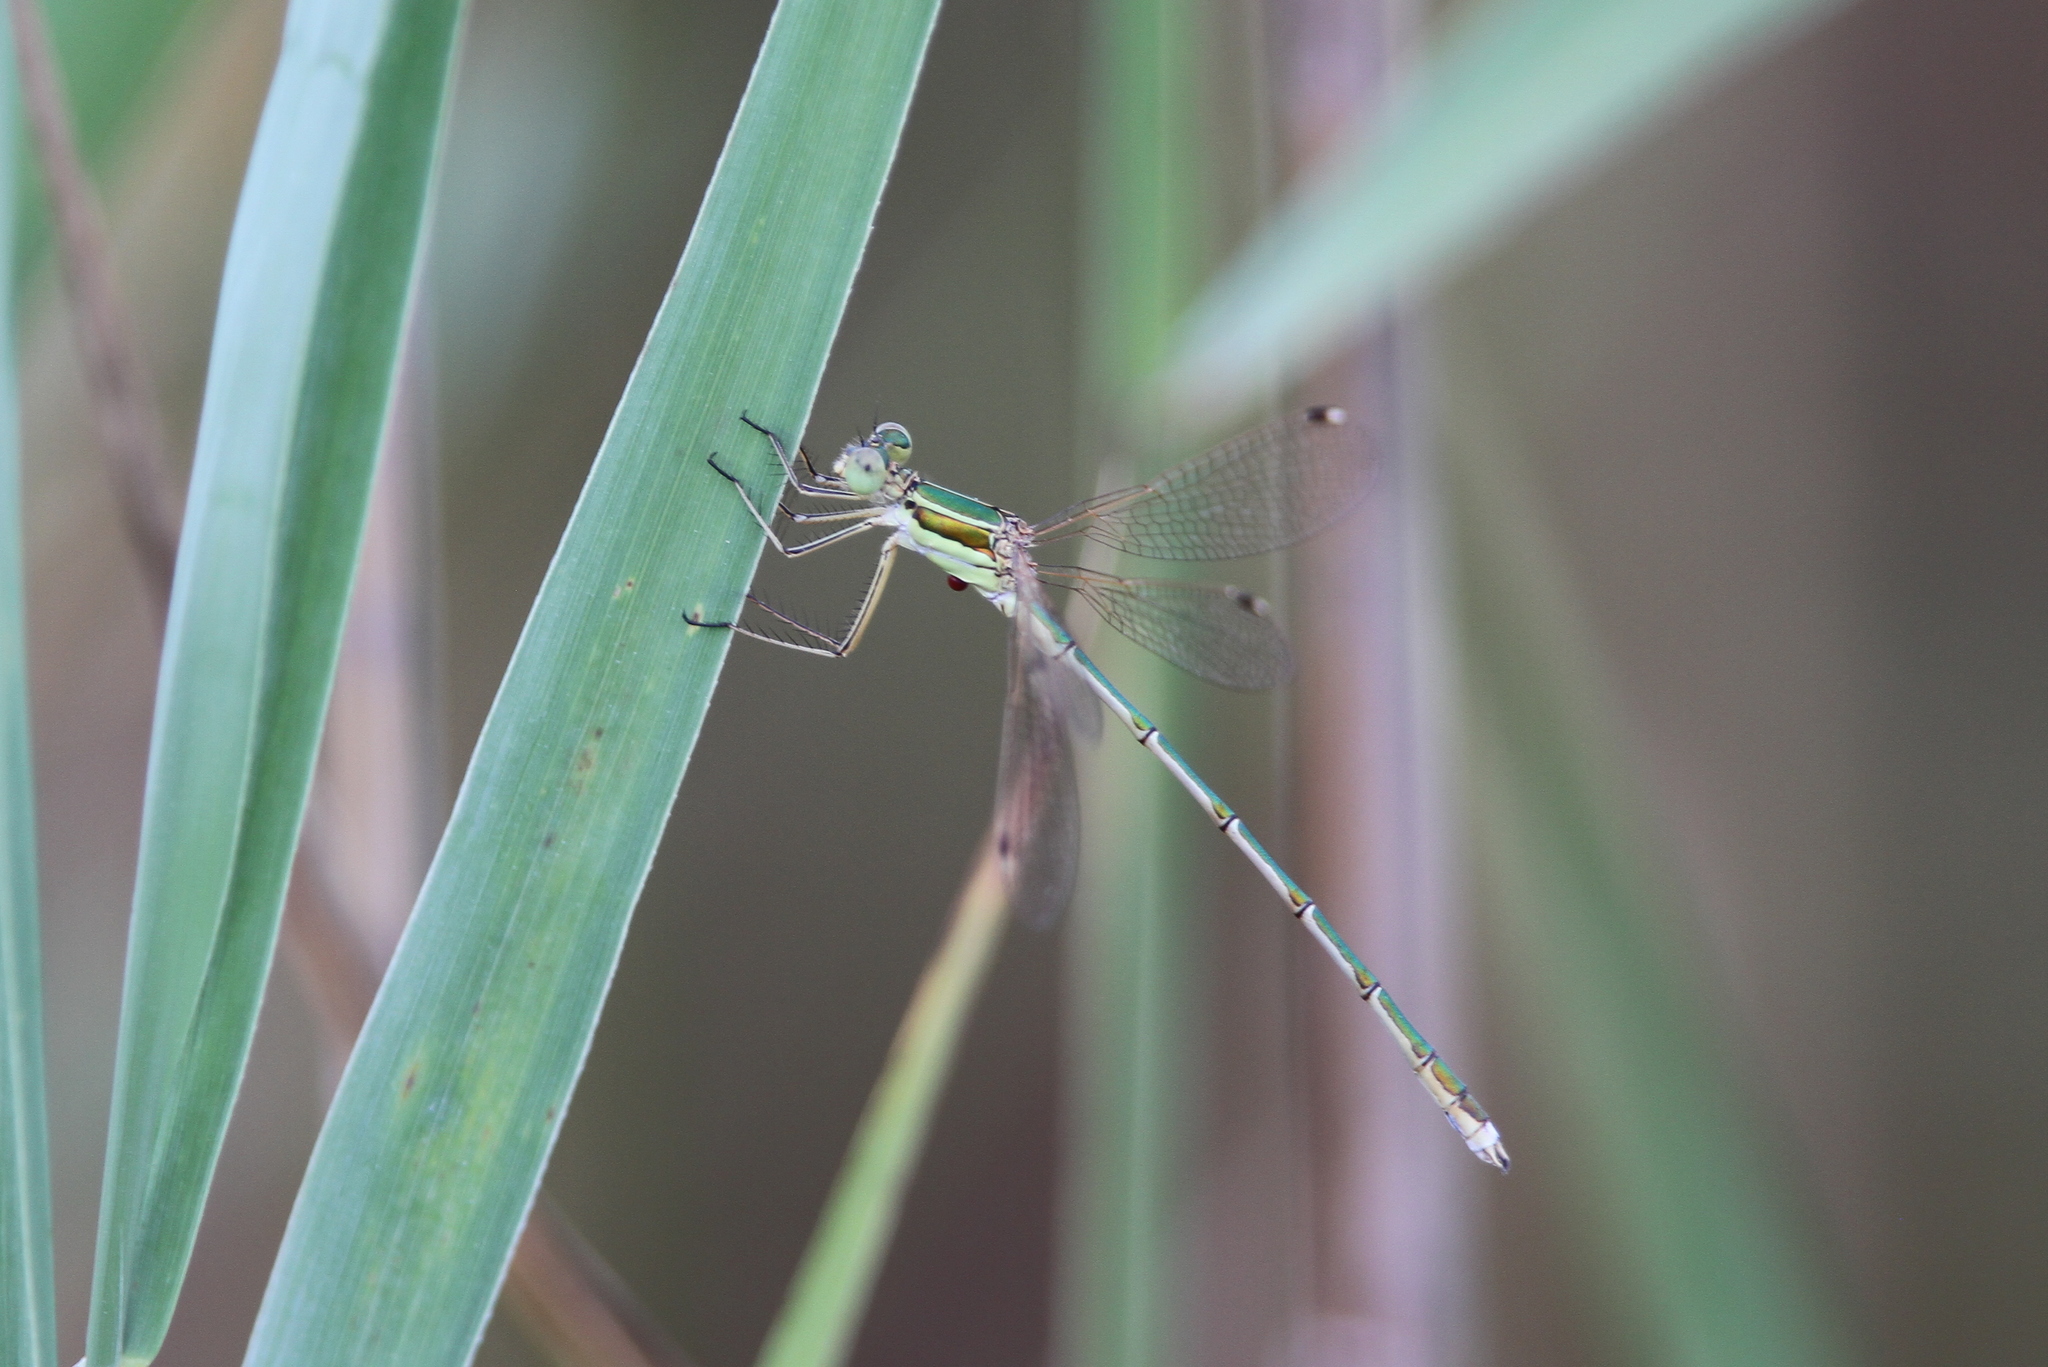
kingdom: Animalia
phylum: Arthropoda
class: Insecta
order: Odonata
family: Lestidae
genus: Lestes
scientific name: Lestes barbarus
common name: Migrant spreadwing
